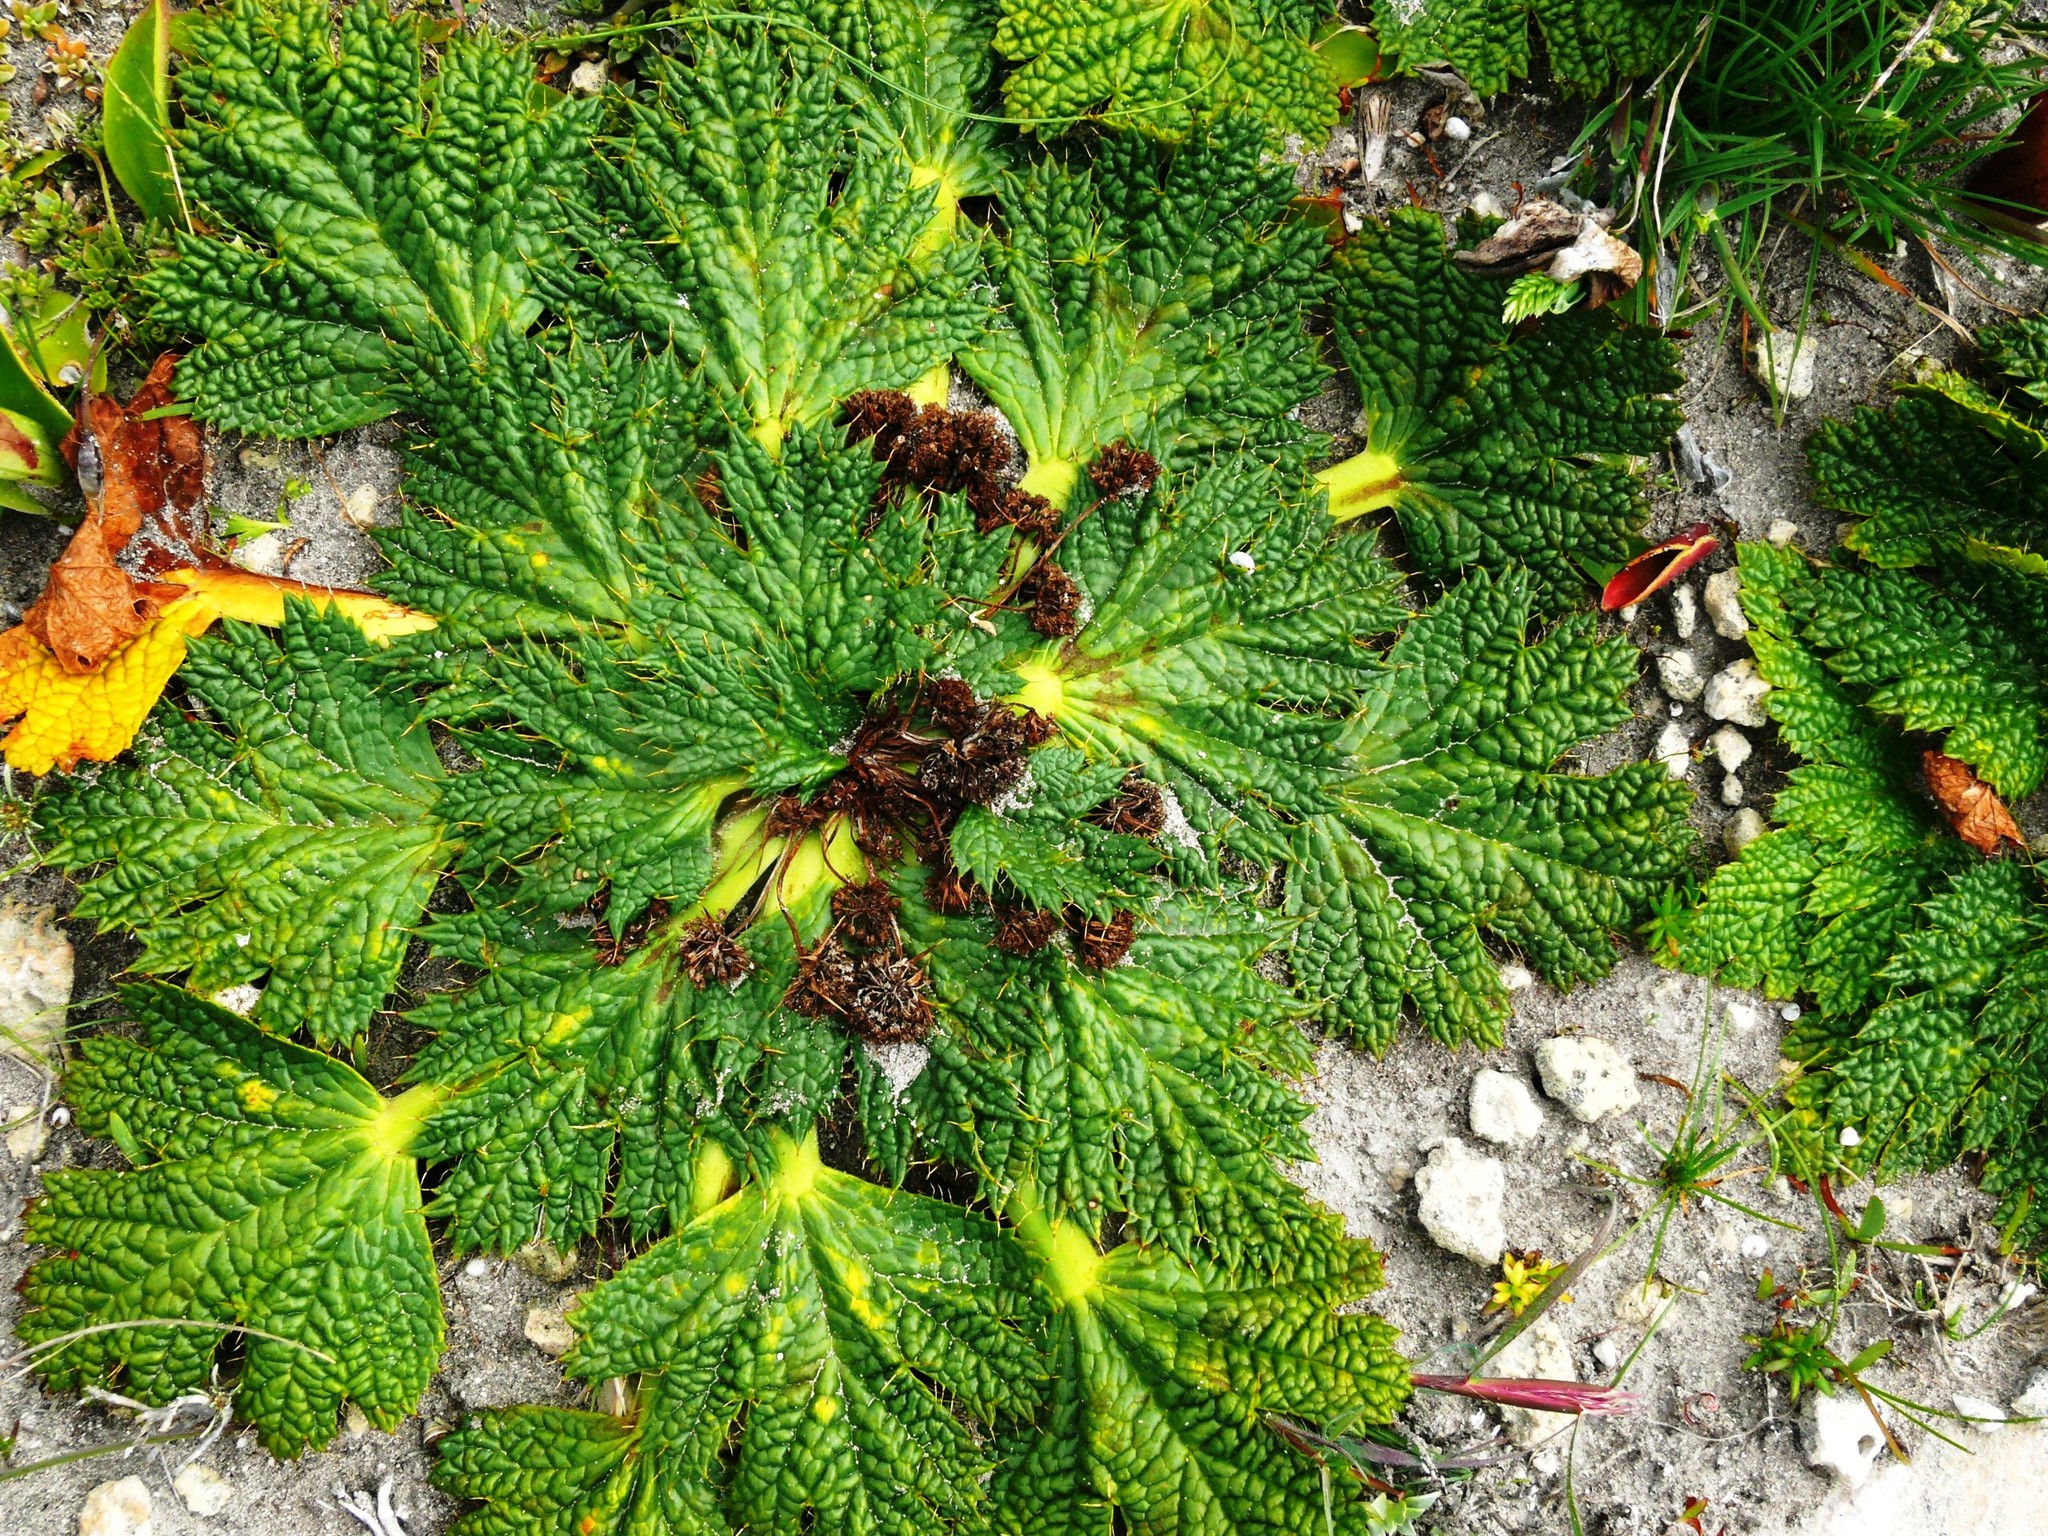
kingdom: Plantae
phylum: Tracheophyta
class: Magnoliopsida
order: Apiales
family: Apiaceae
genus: Arctopus
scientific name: Arctopus echinatus
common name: Platdoring
